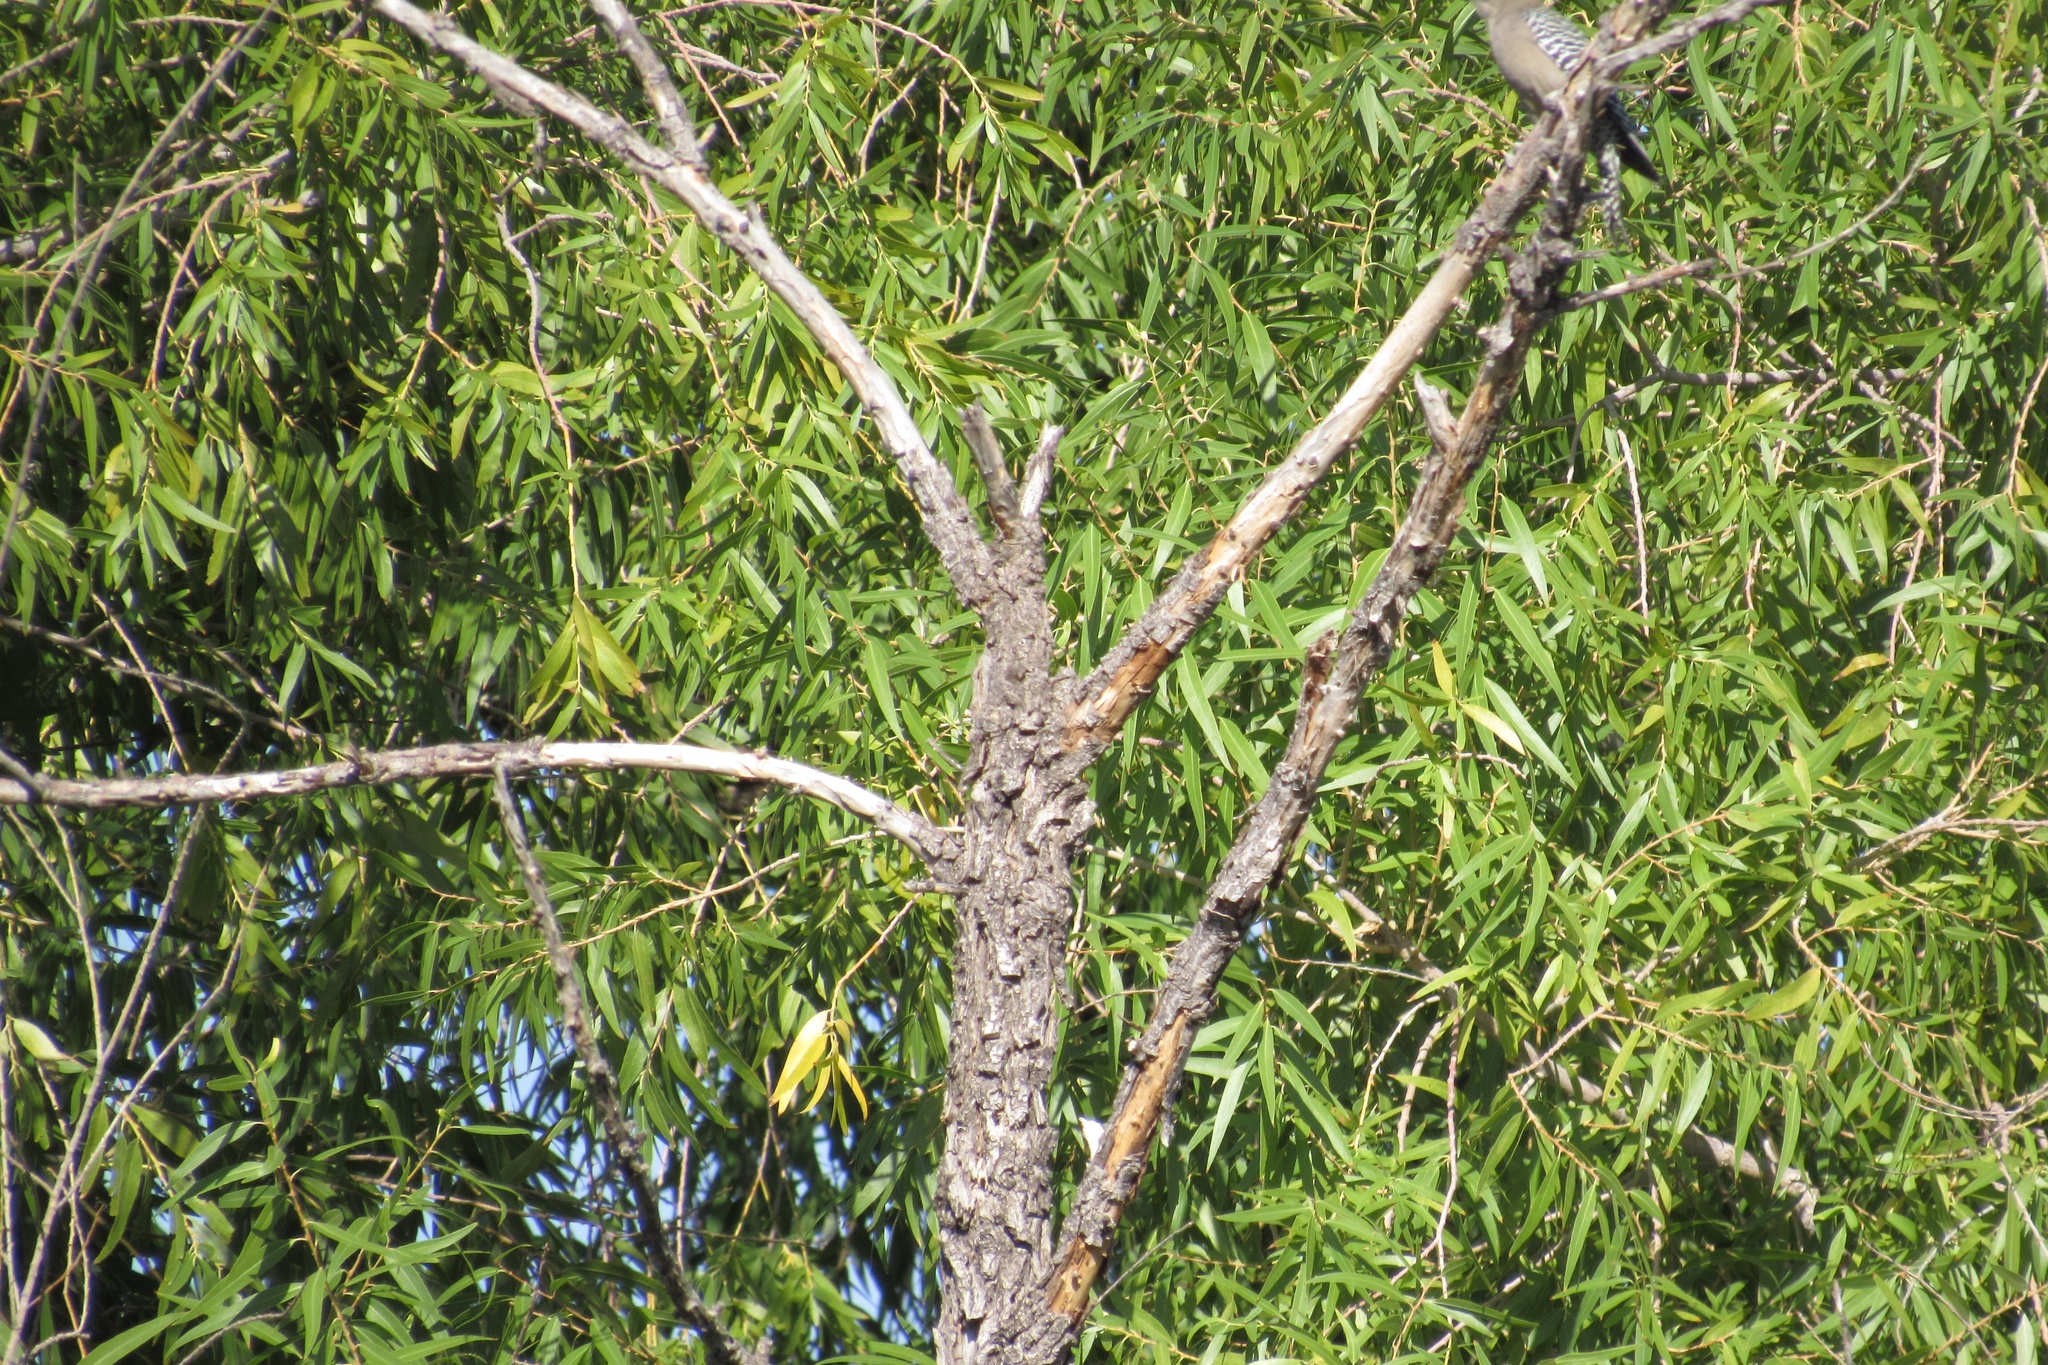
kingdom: Animalia
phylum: Chordata
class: Aves
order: Piciformes
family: Picidae
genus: Melanerpes
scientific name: Melanerpes uropygialis
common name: Gila woodpecker
